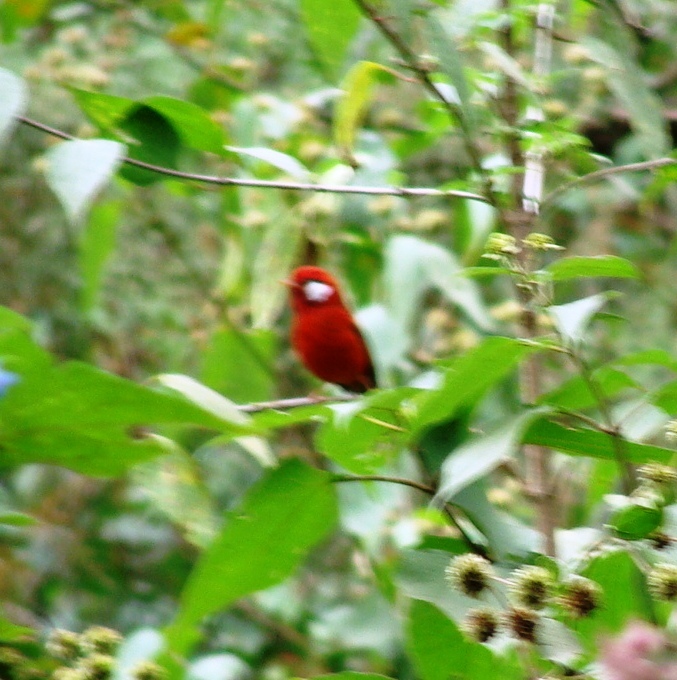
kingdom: Animalia
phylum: Chordata
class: Aves
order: Passeriformes
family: Parulidae
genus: Cardellina
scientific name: Cardellina rubra
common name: Red warbler
